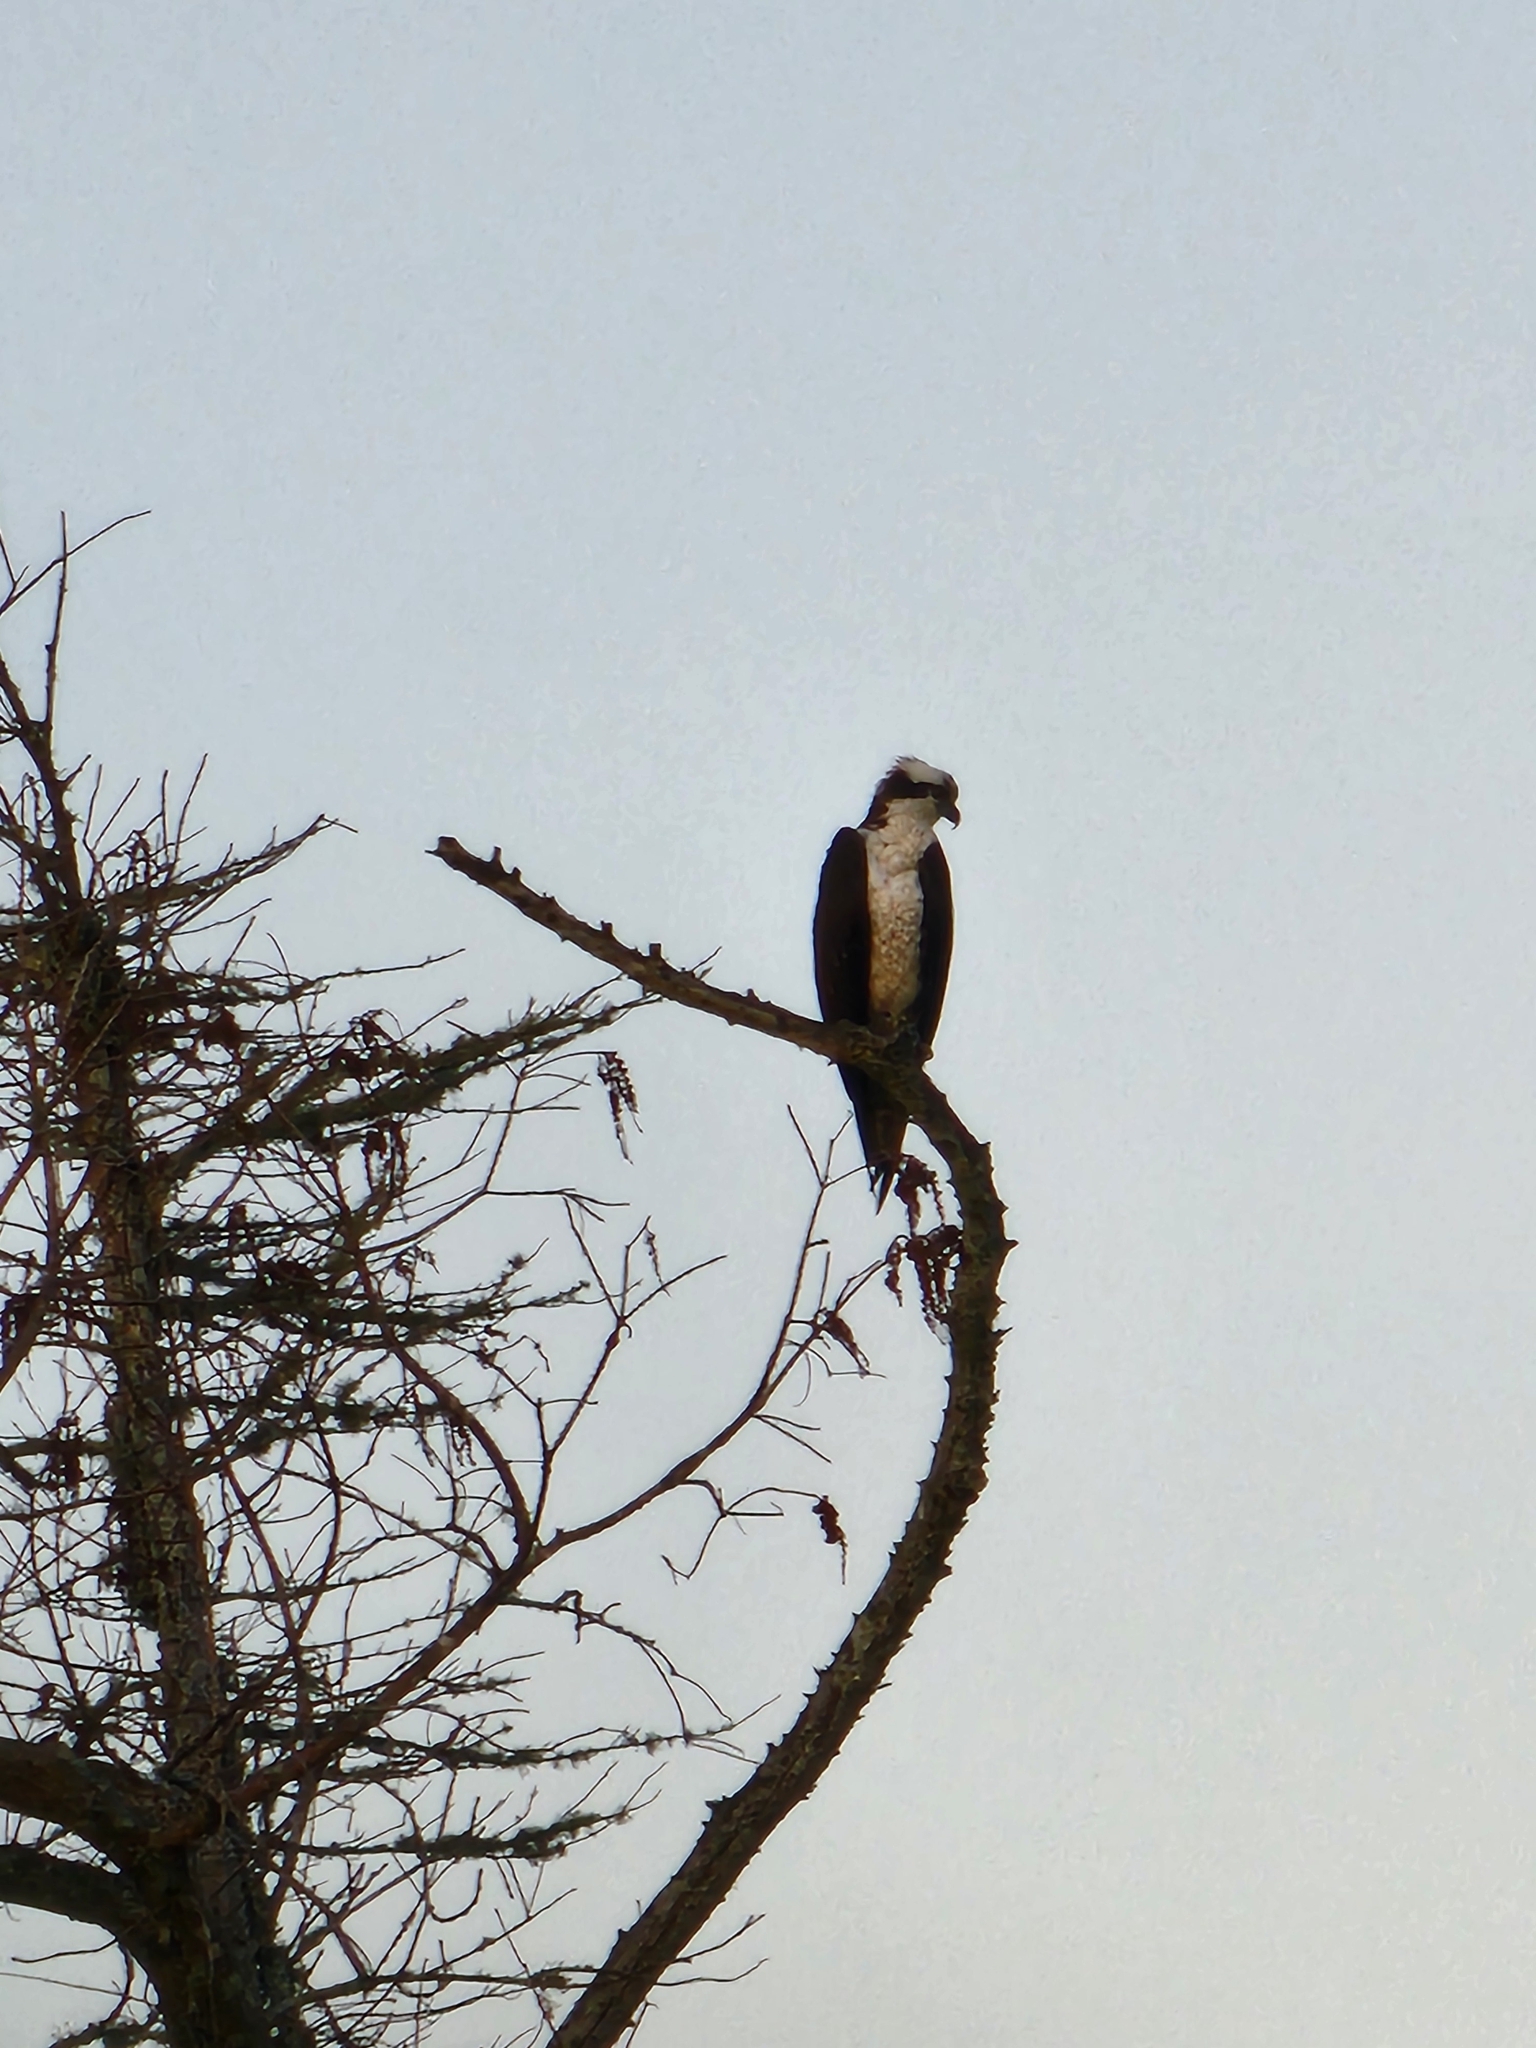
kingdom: Animalia
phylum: Chordata
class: Aves
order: Accipitriformes
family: Pandionidae
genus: Pandion
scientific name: Pandion haliaetus
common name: Osprey
